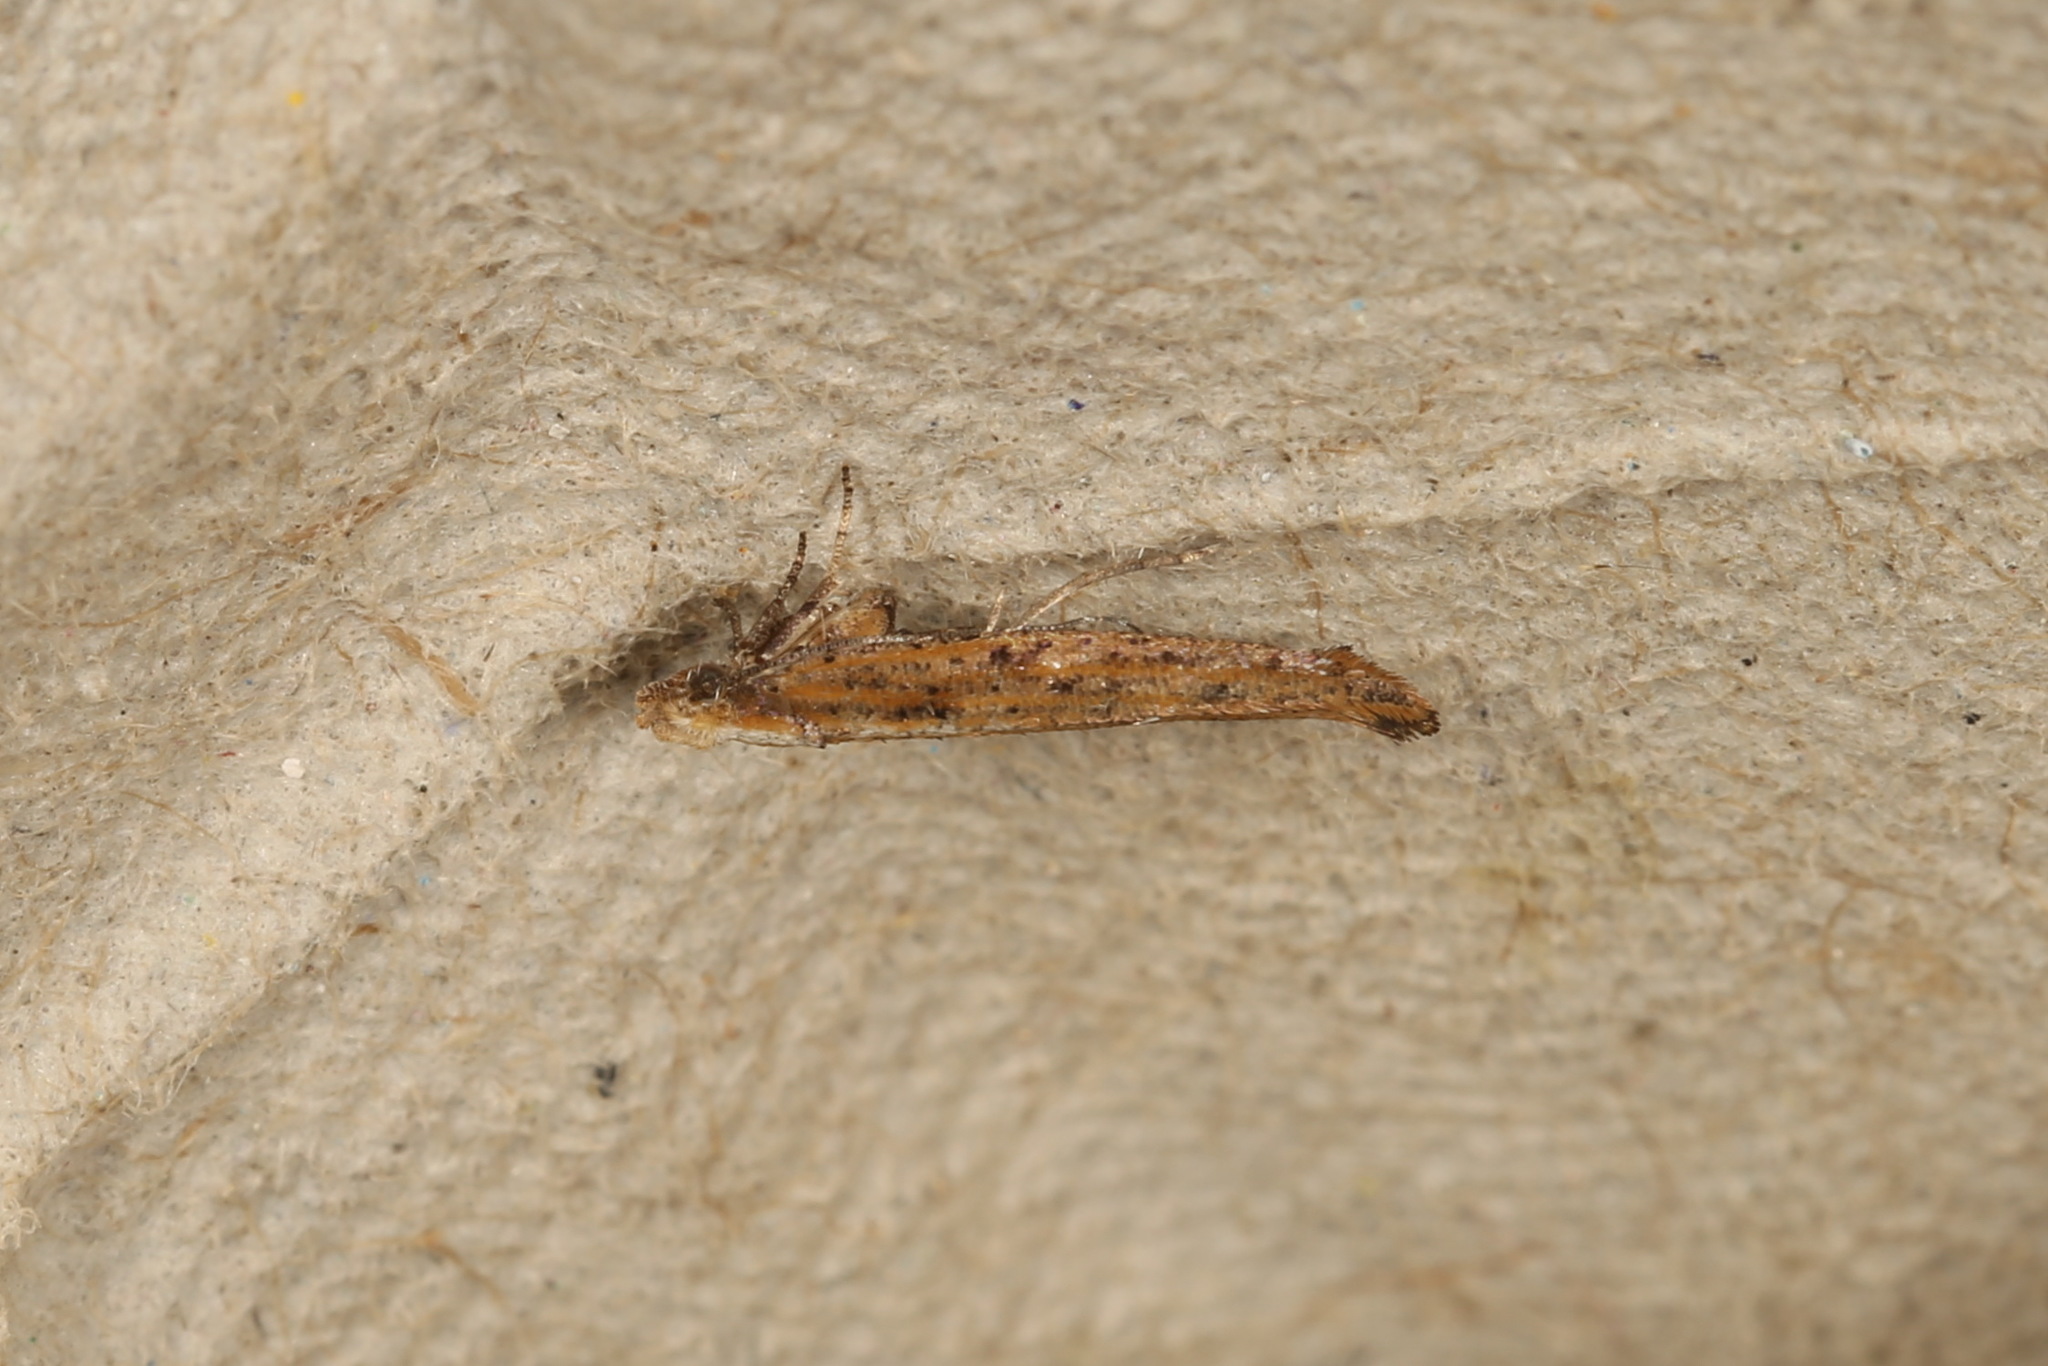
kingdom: Animalia
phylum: Arthropoda
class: Insecta
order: Lepidoptera
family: Yponomeutidae
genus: Zelleria
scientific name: Zelleria cynetica
